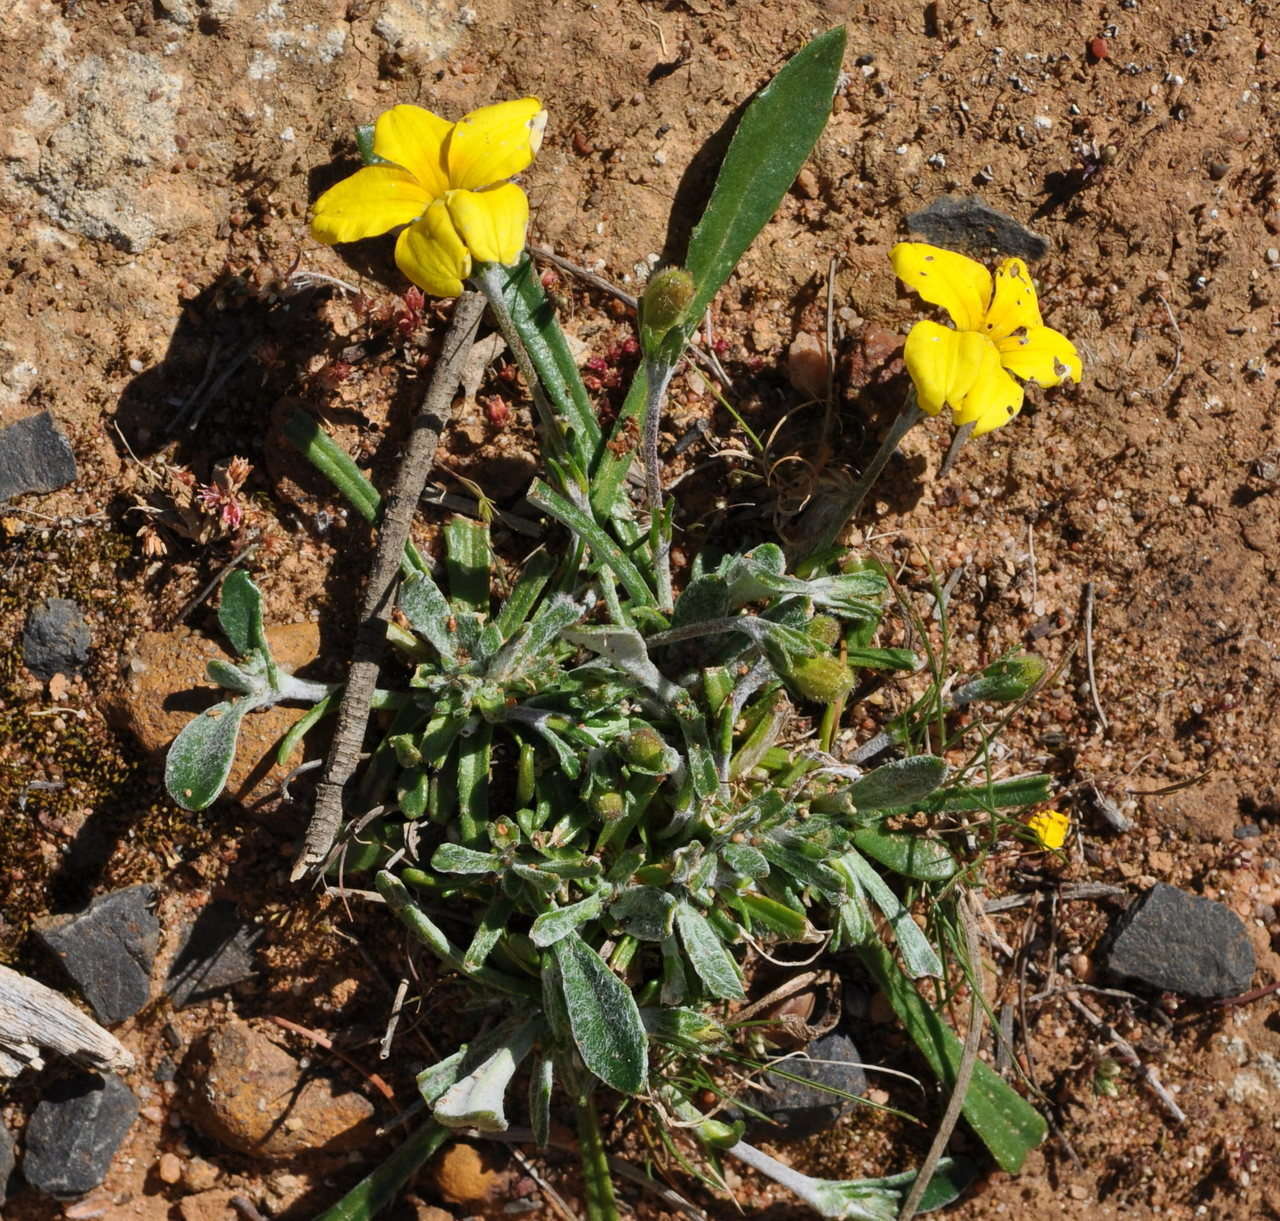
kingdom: Plantae
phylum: Tracheophyta
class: Magnoliopsida
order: Asterales
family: Goodeniaceae
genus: Goodenia
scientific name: Goodenia blackiana
